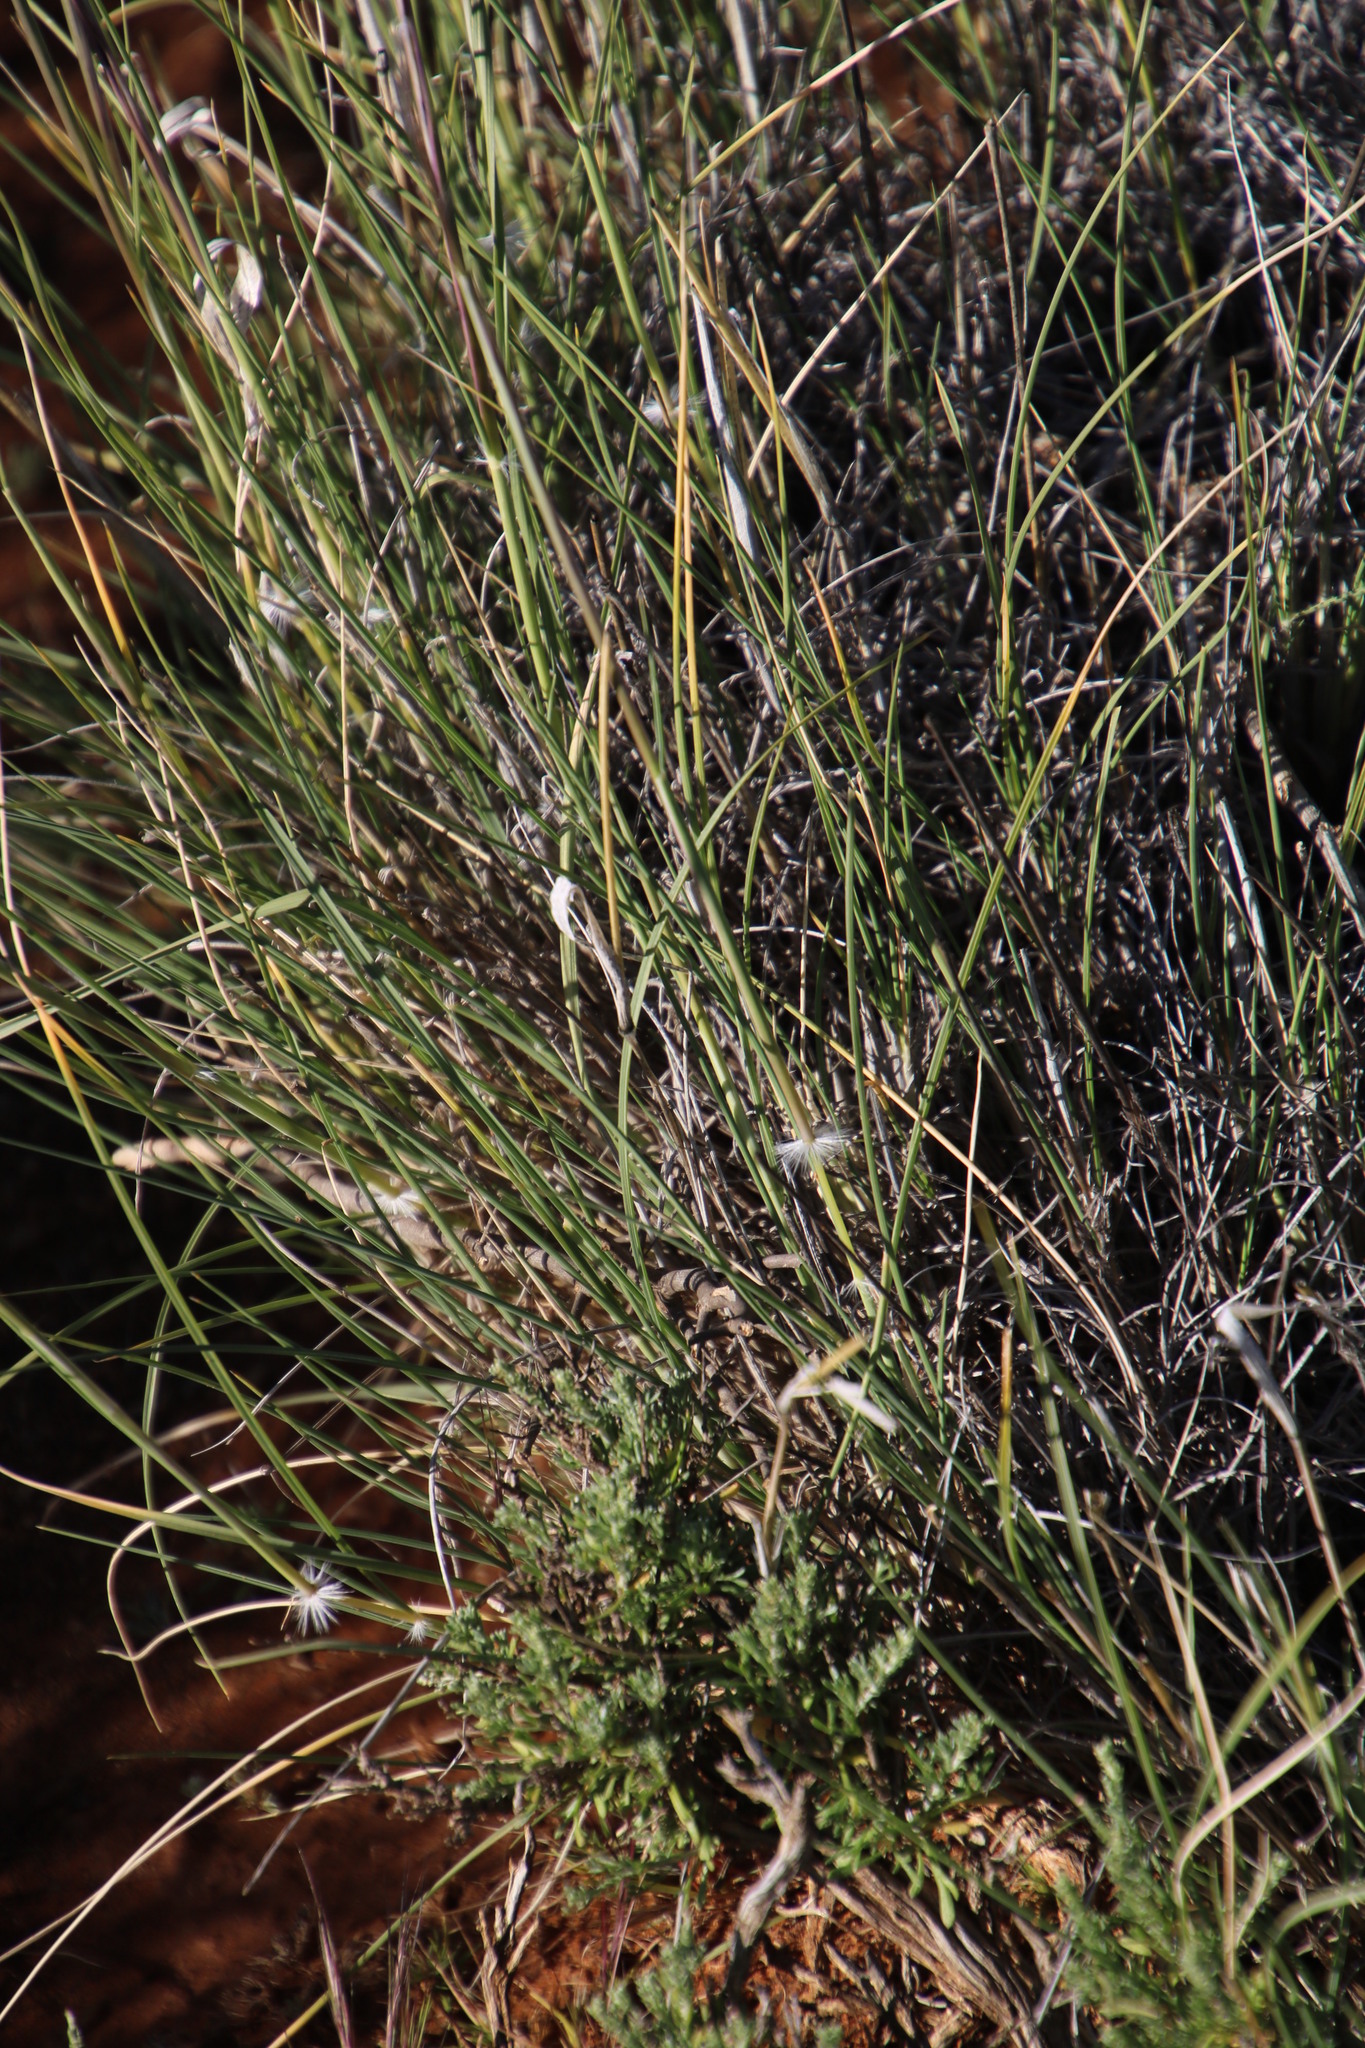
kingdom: Plantae
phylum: Tracheophyta
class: Liliopsida
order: Poales
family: Poaceae
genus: Stipagrostis
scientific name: Stipagrostis ciliata
